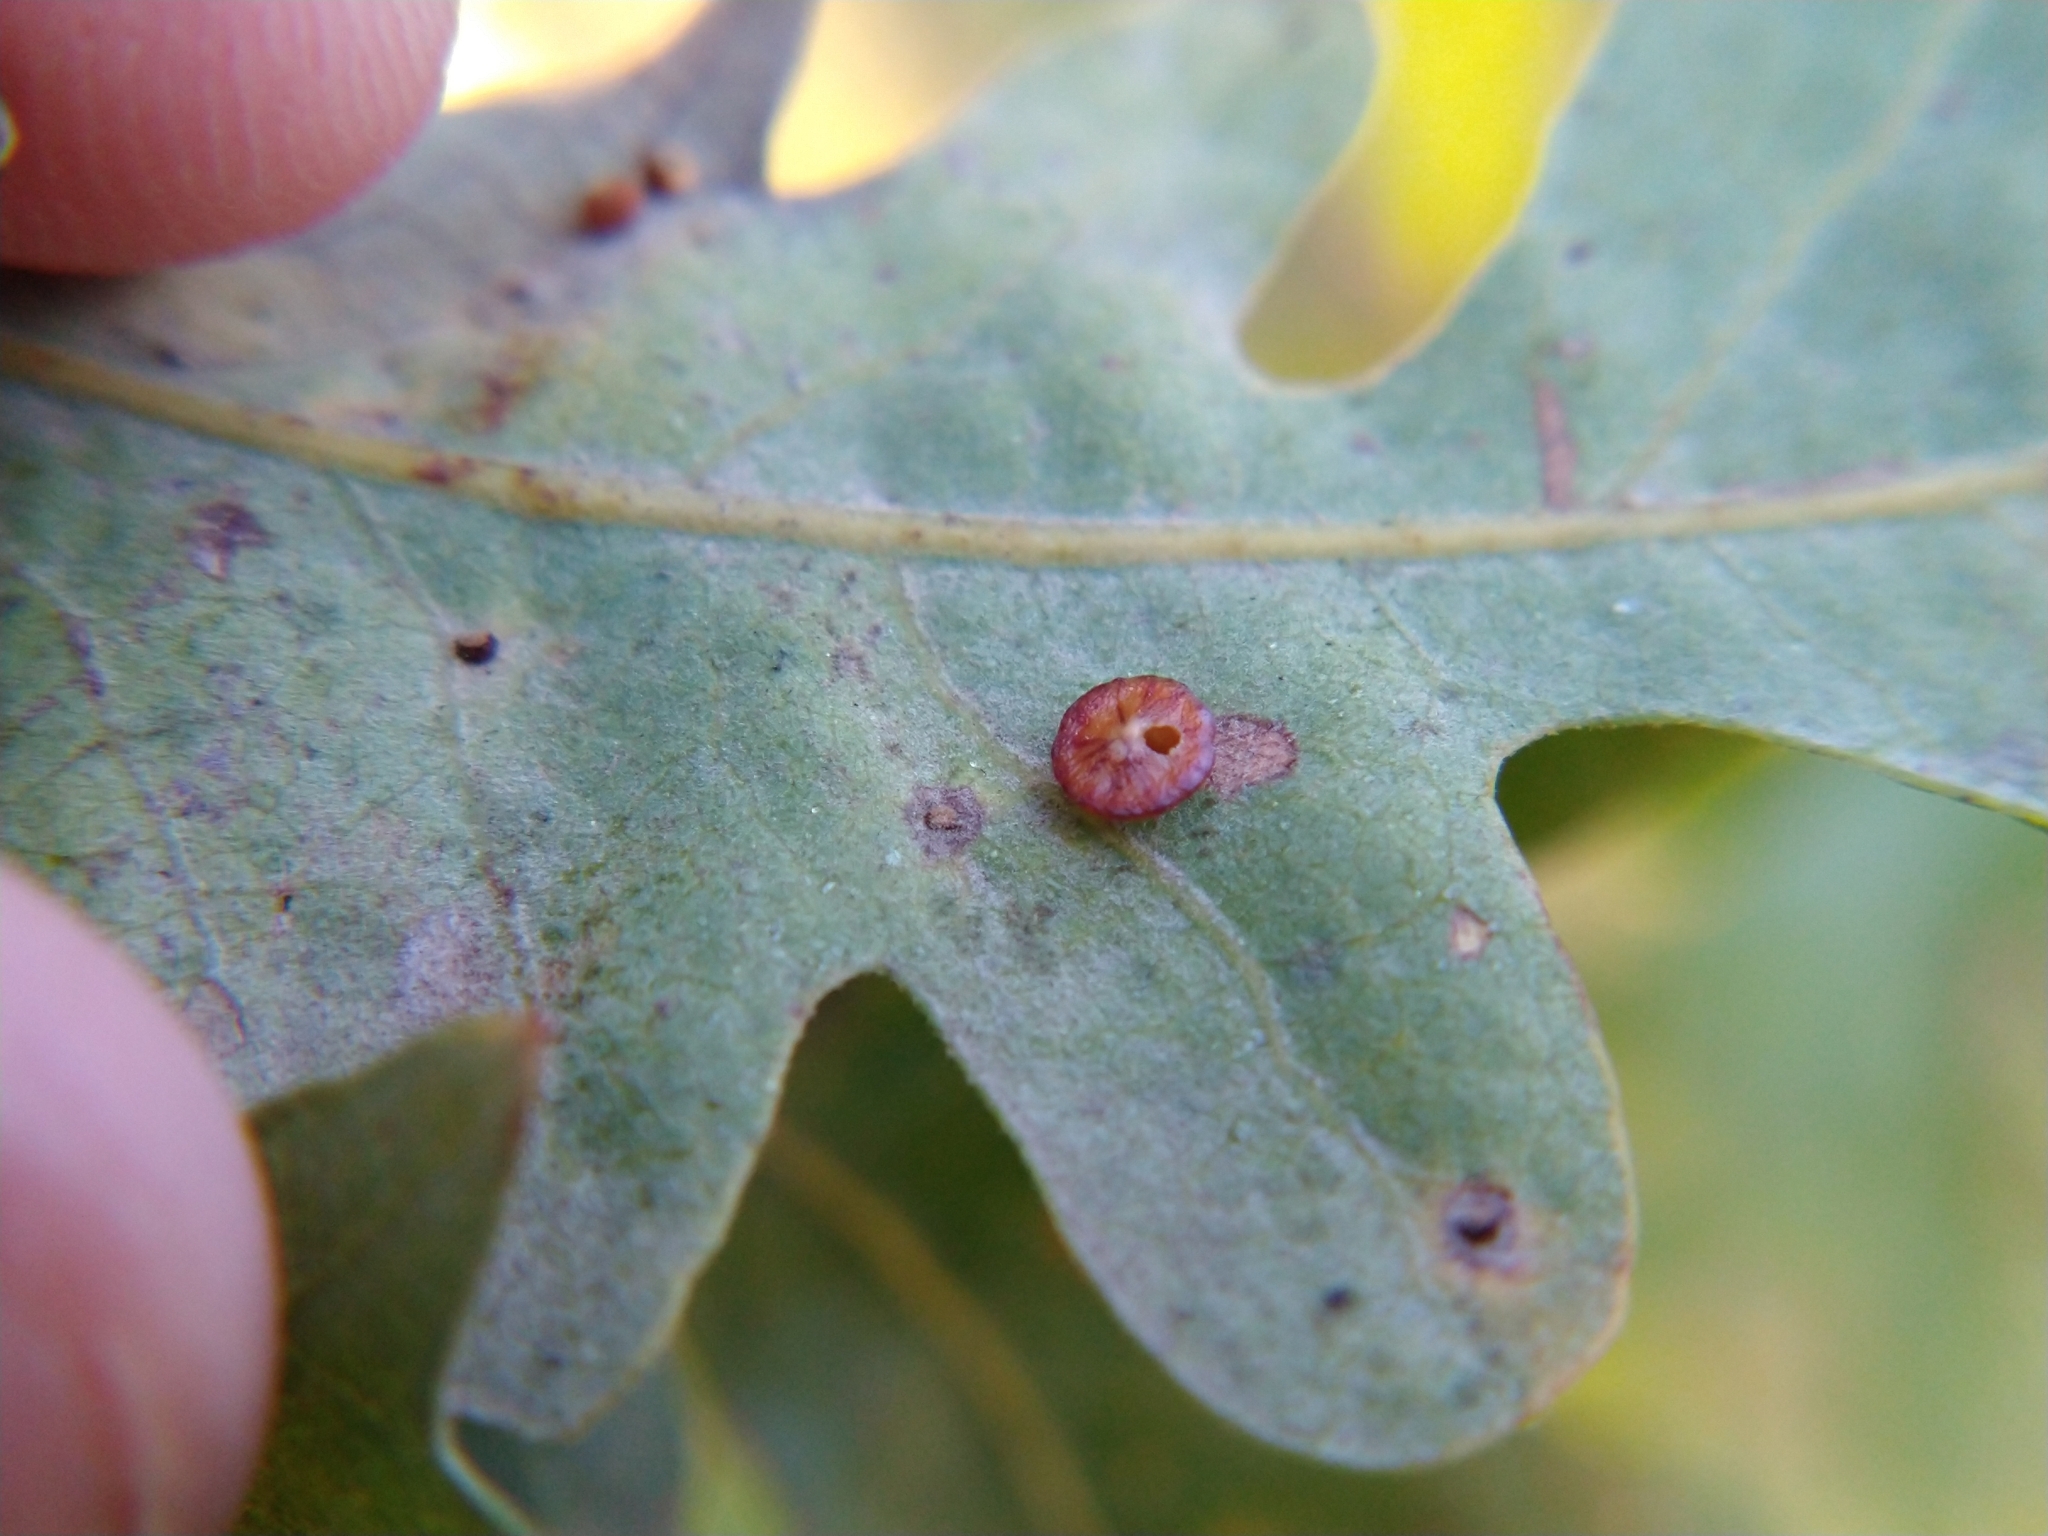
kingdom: Animalia
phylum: Arthropoda
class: Insecta
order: Hymenoptera
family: Cynipidae
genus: Andricus
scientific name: Andricus
